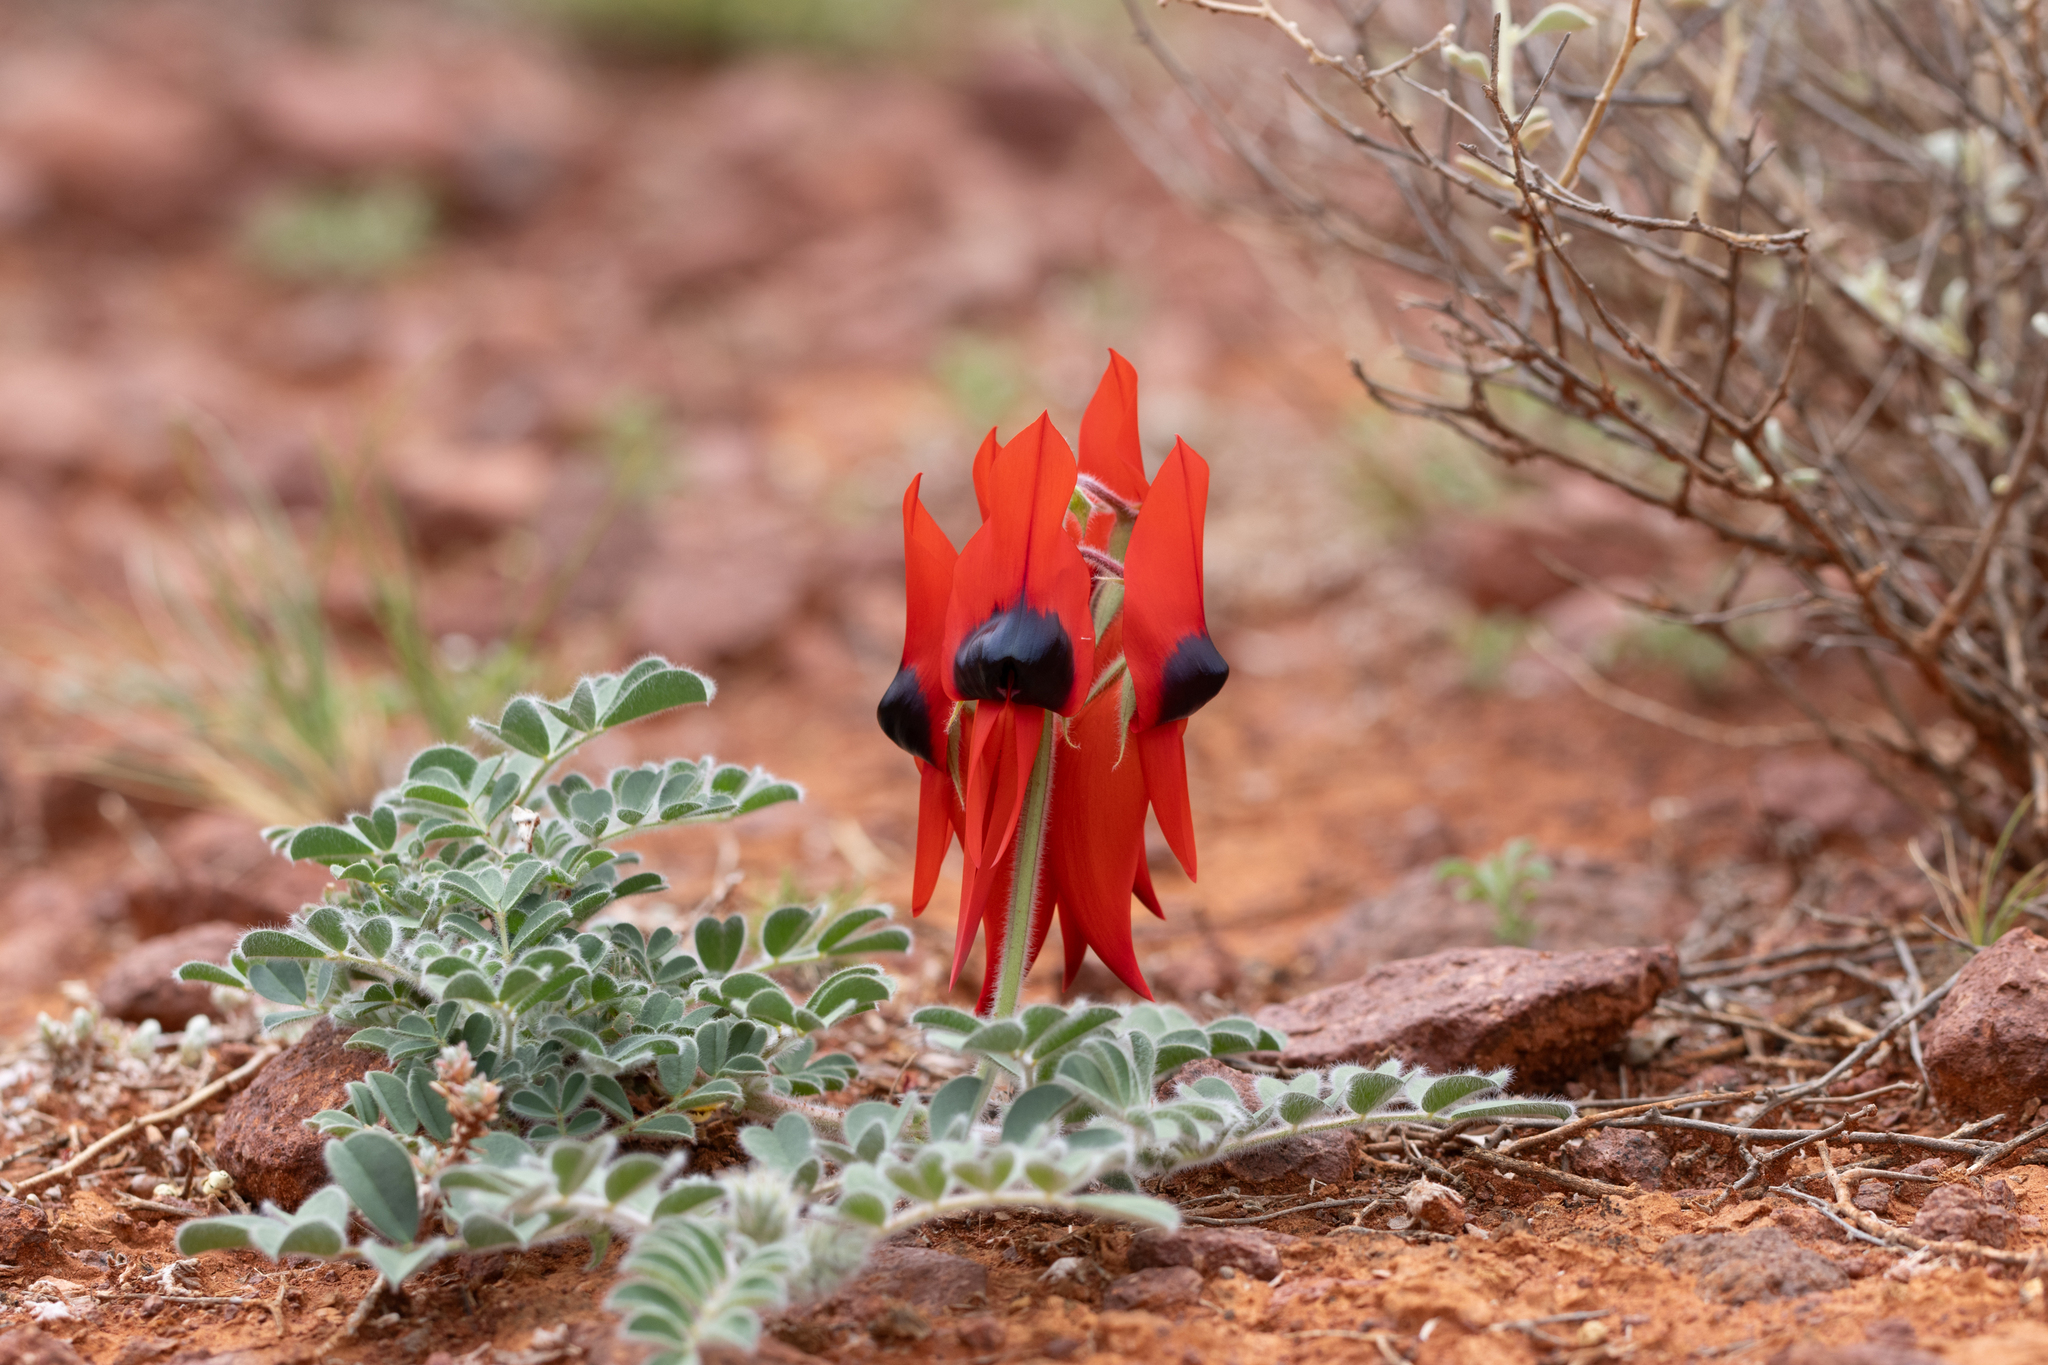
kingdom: Plantae
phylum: Tracheophyta
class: Magnoliopsida
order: Fabales
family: Fabaceae
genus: Swainsona
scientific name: Swainsona formosa
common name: Sturt's desert-pea
